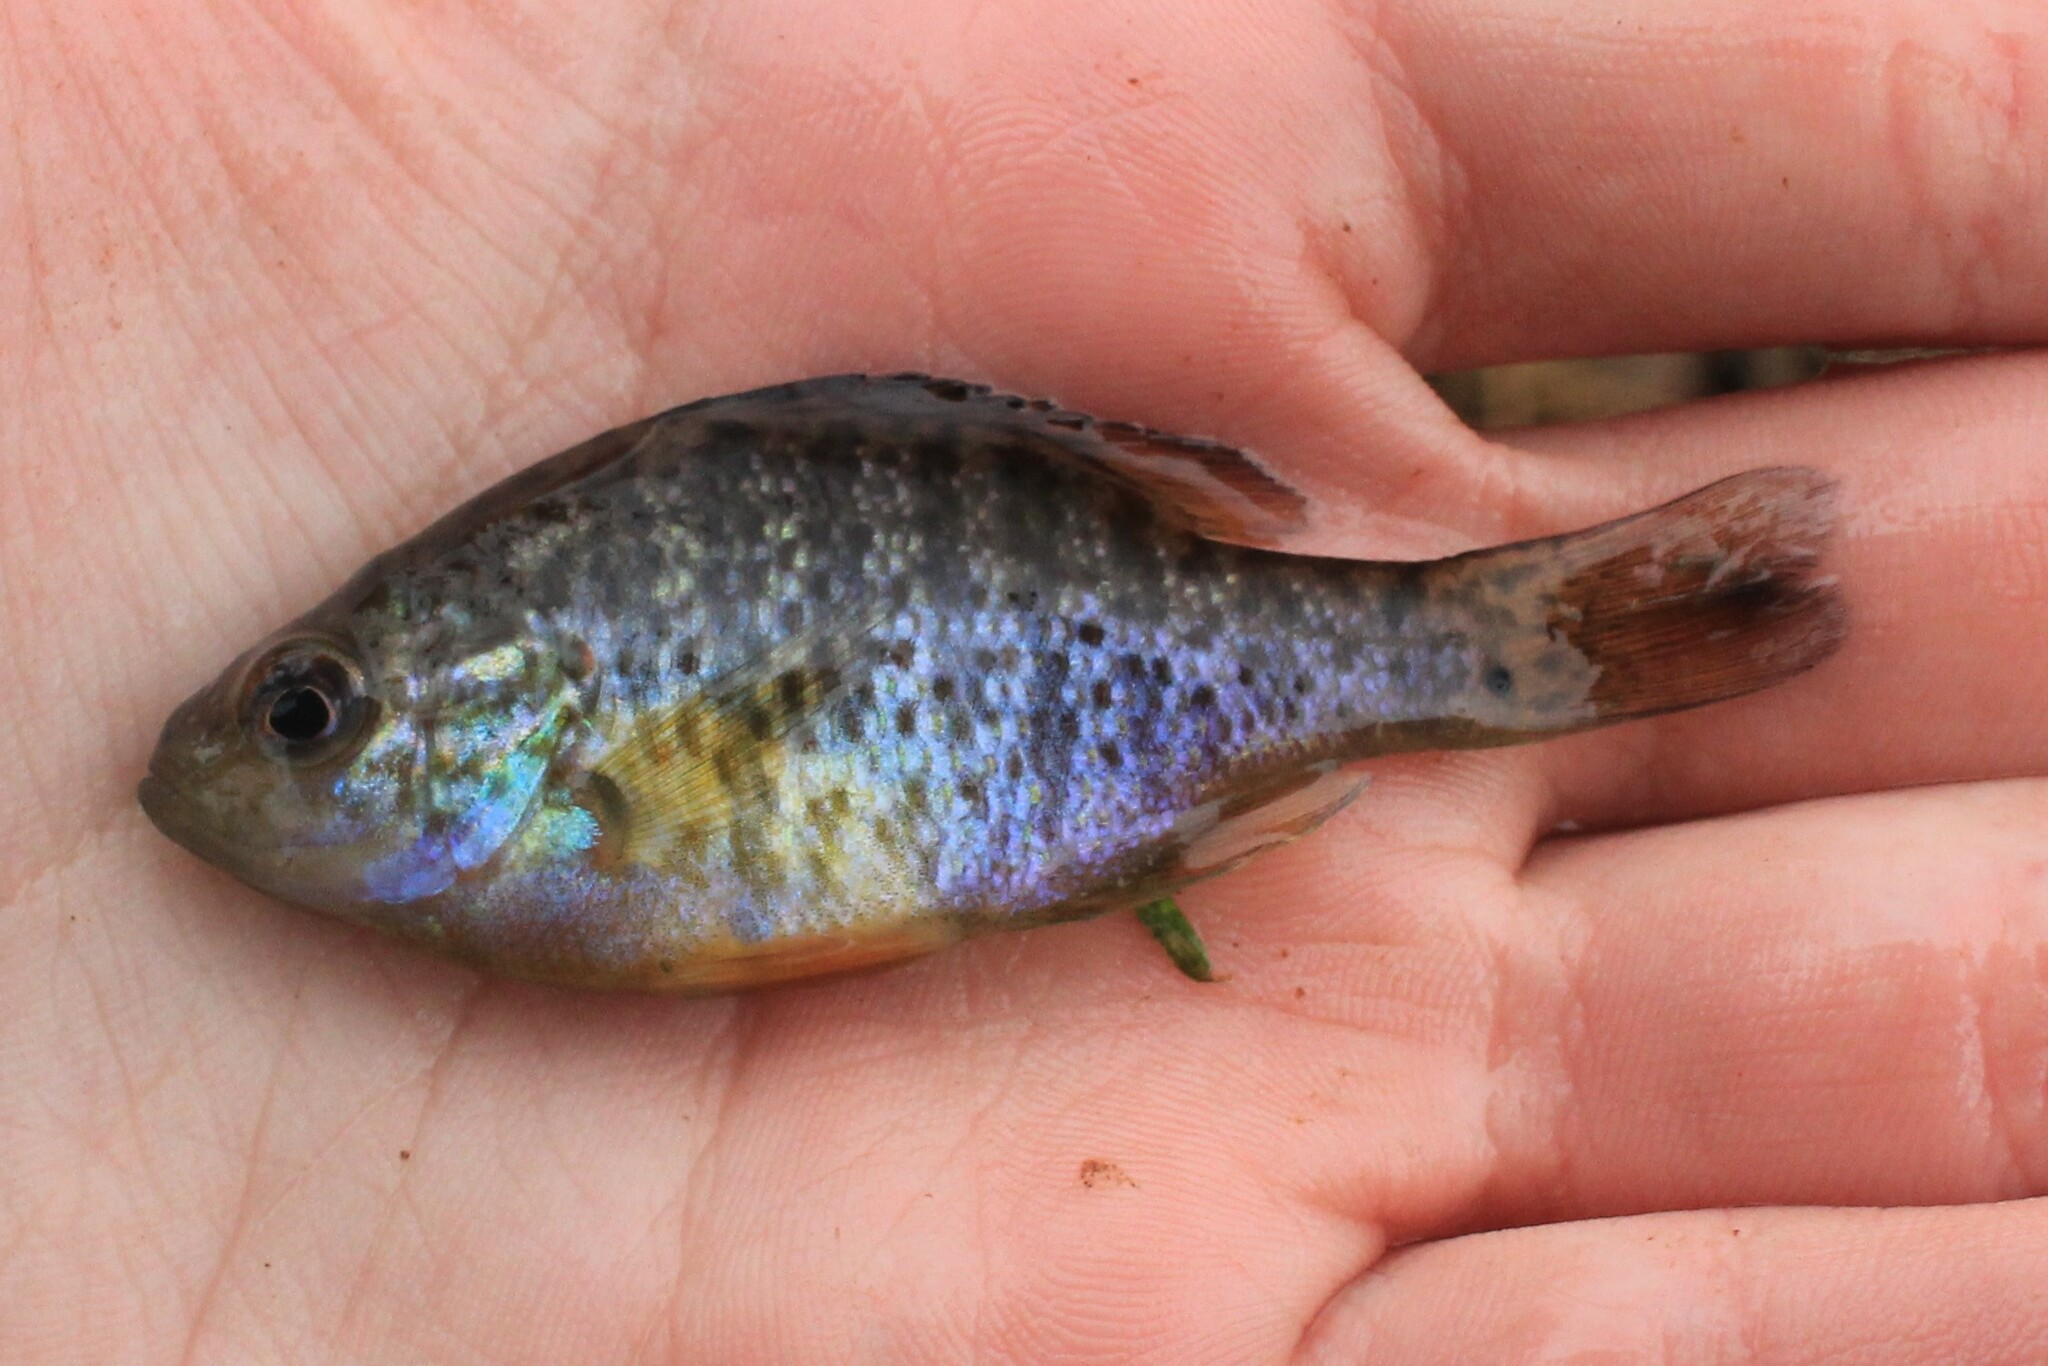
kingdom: Animalia
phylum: Chordata
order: Perciformes
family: Centrarchidae
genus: Lepomis
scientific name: Lepomis gibbosus
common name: Pumpkinseed
